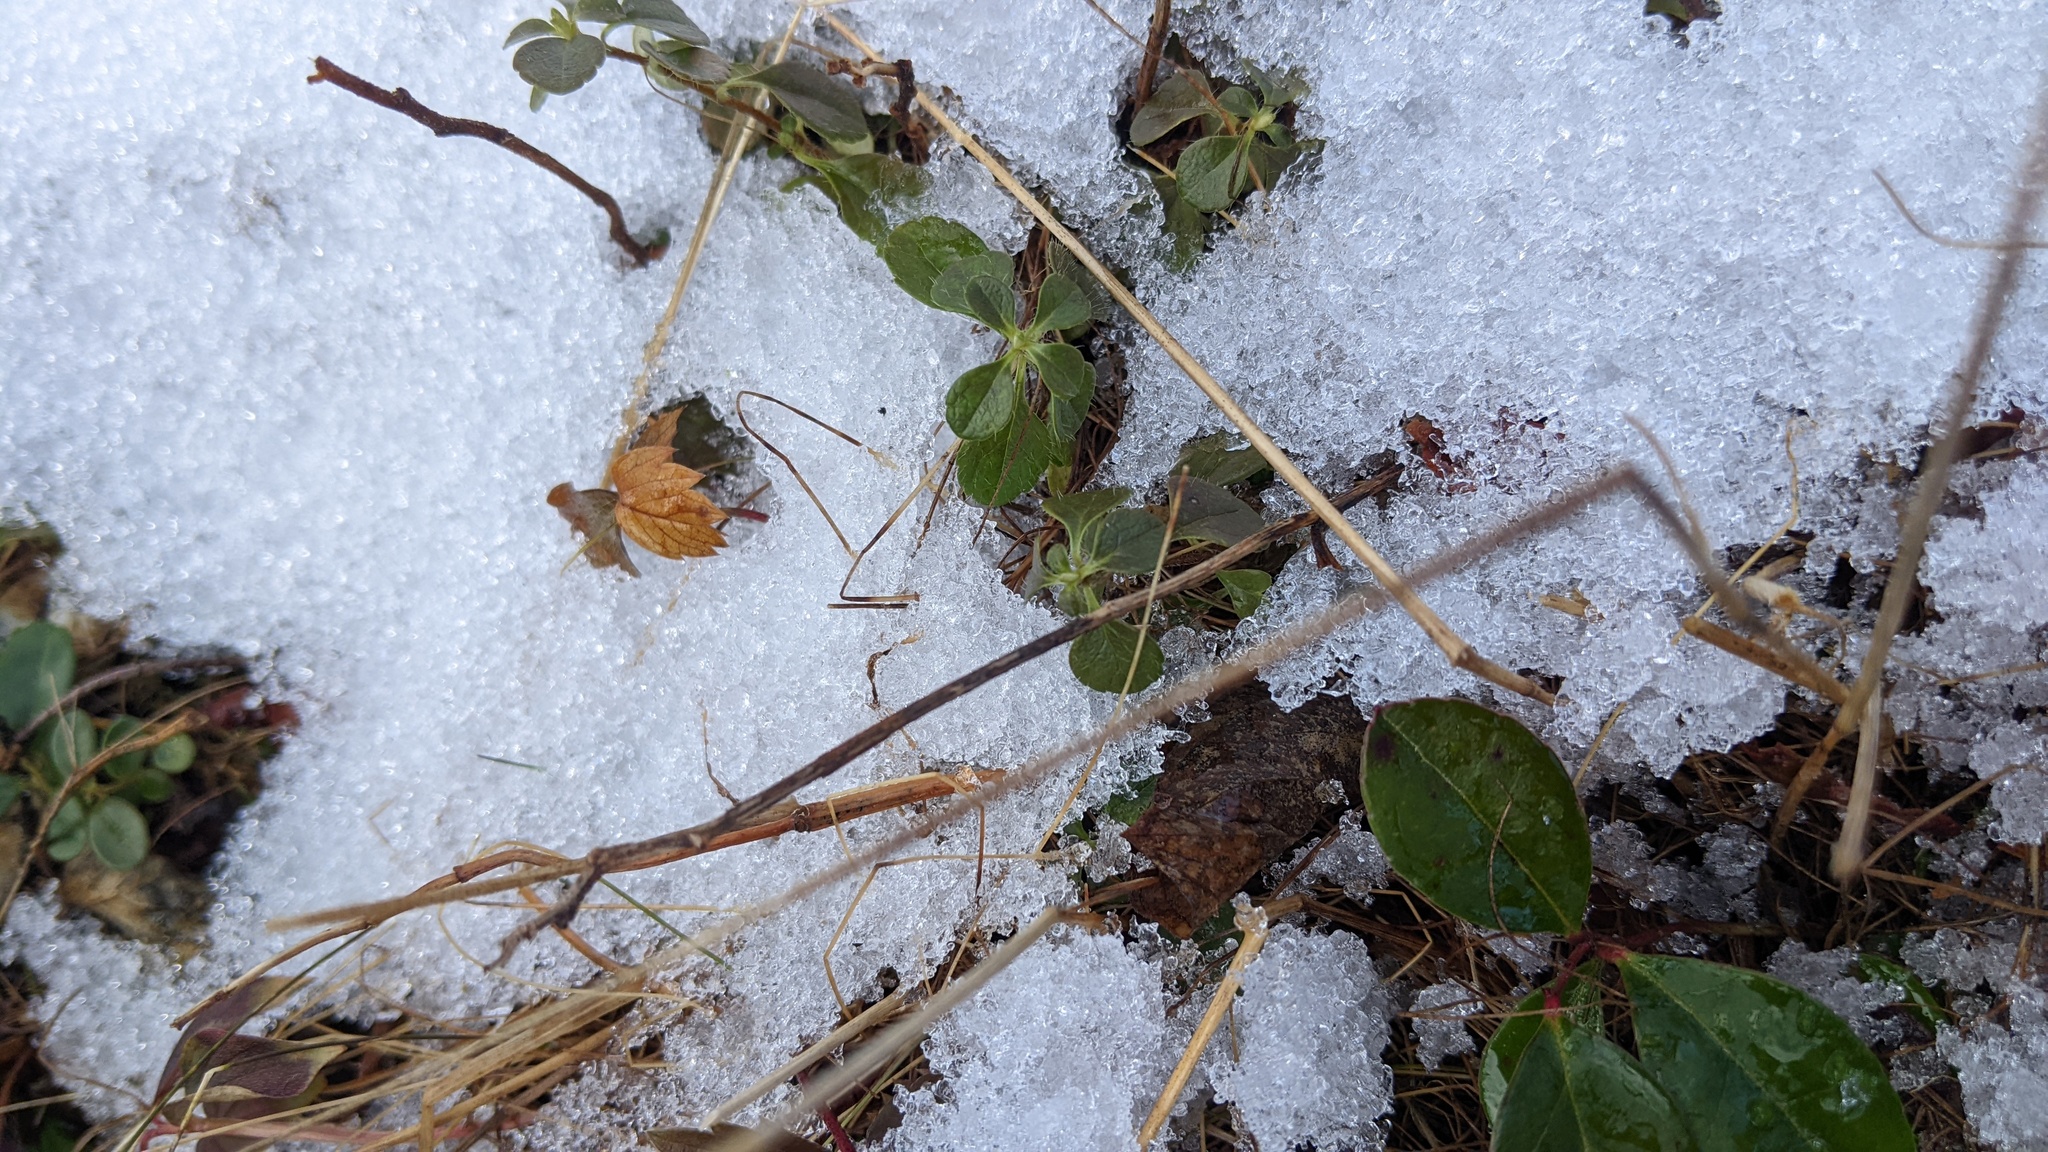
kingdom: Plantae
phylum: Tracheophyta
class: Magnoliopsida
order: Dipsacales
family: Caprifoliaceae
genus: Linnaea
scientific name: Linnaea borealis
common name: Twinflower
